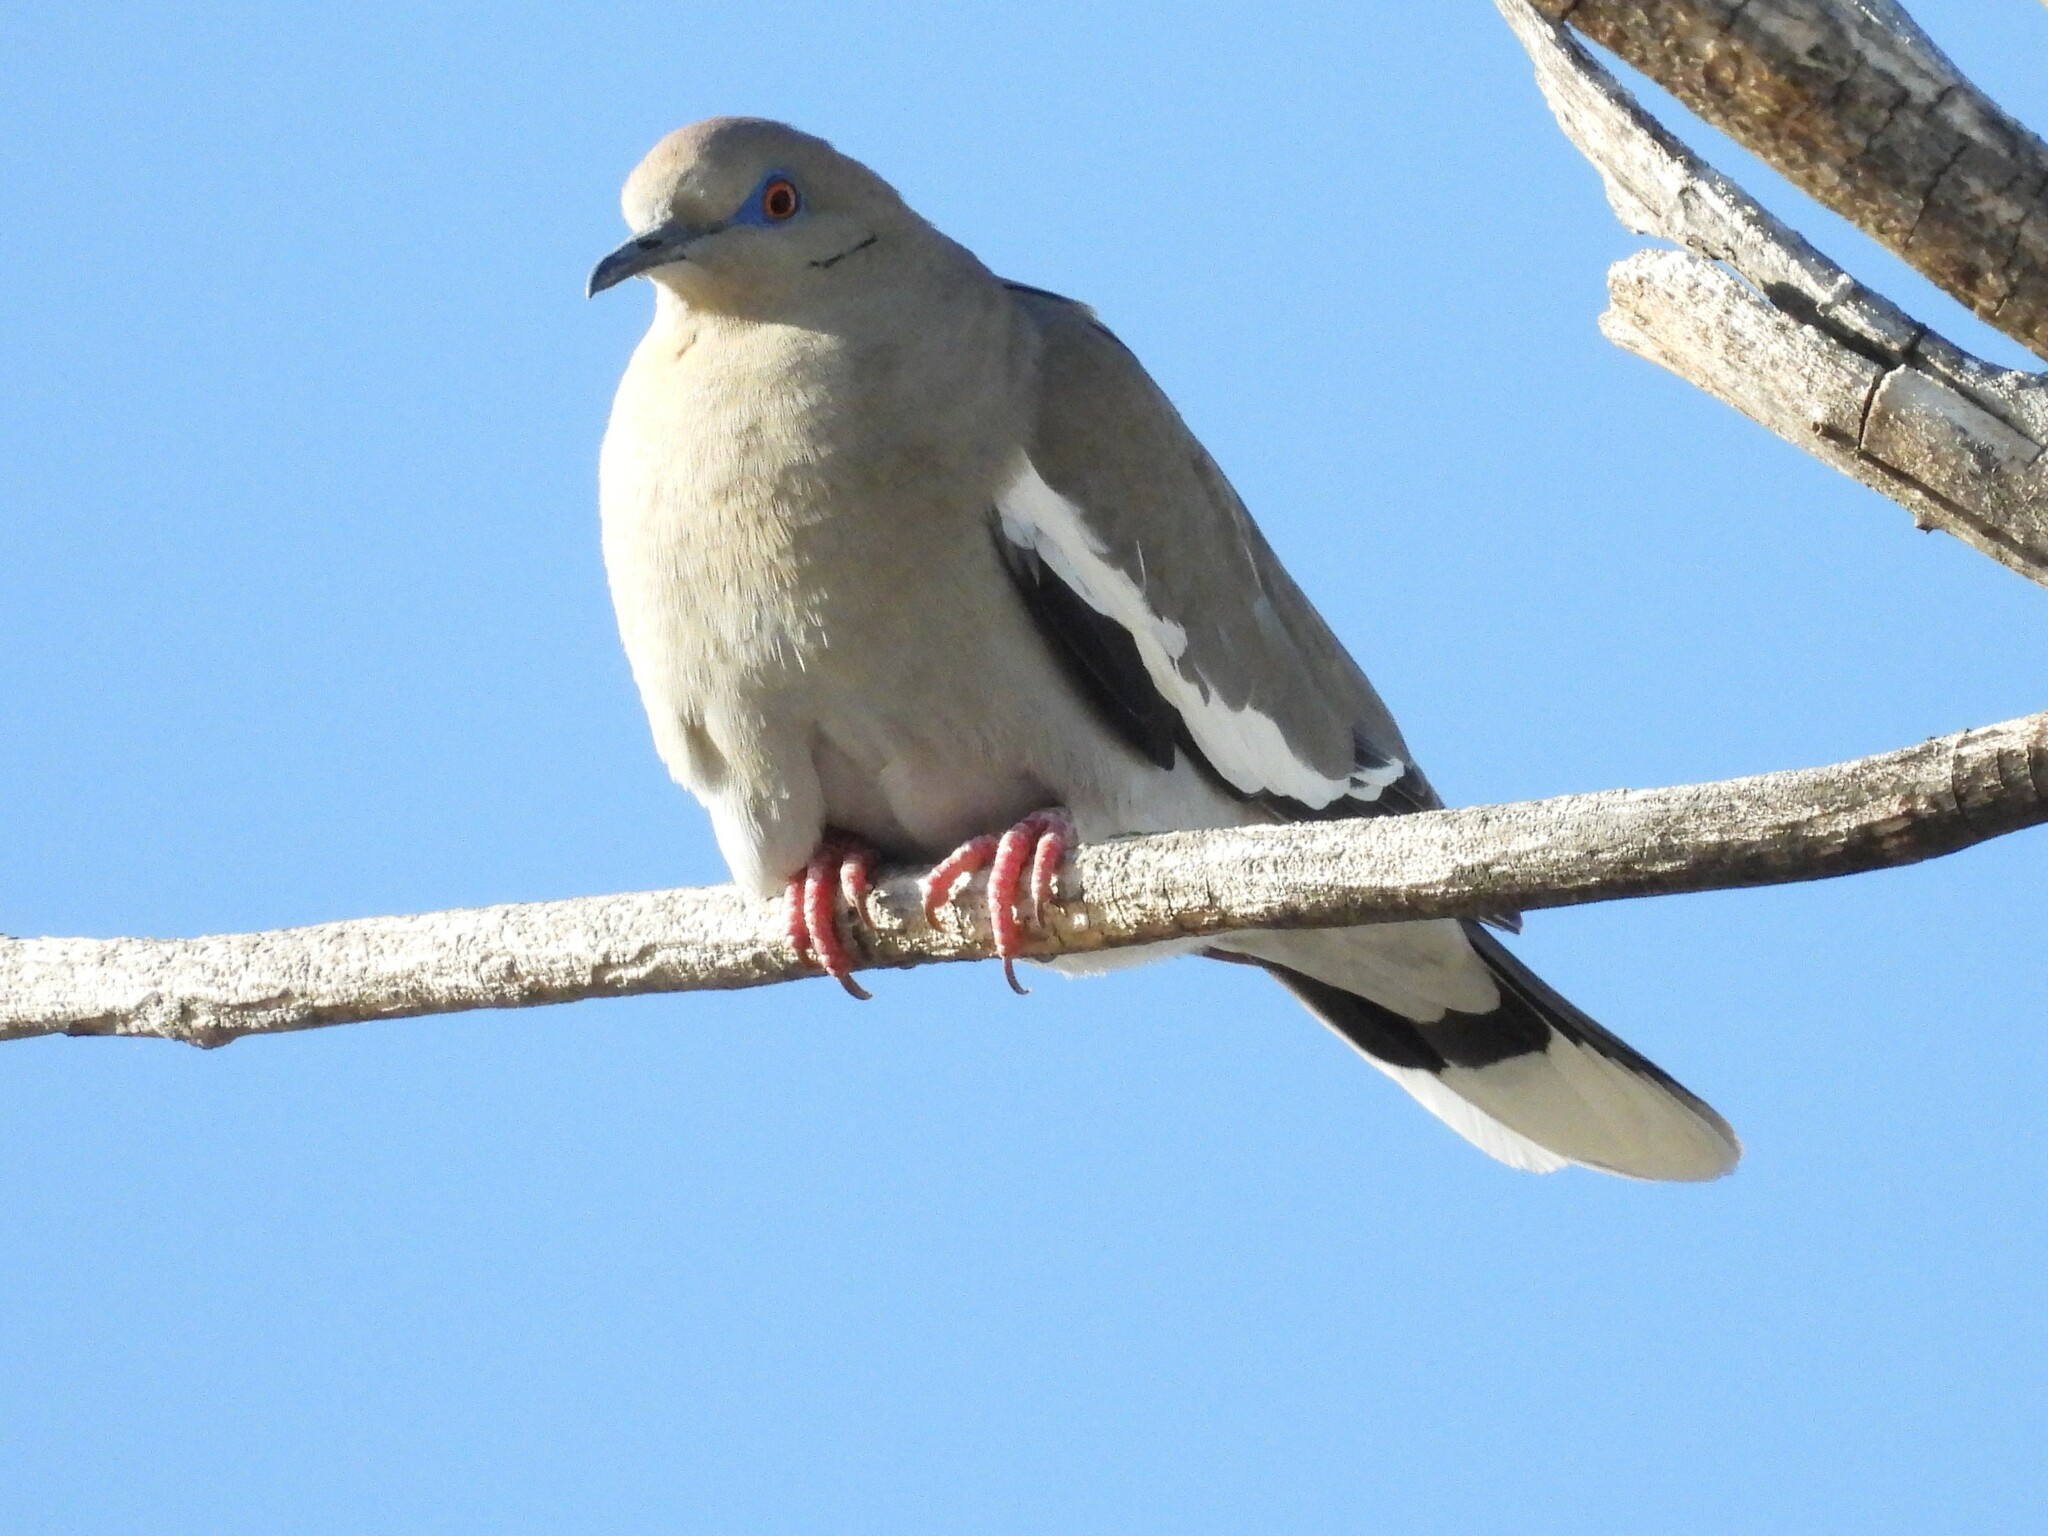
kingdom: Animalia
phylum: Chordata
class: Aves
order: Columbiformes
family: Columbidae
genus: Zenaida
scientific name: Zenaida asiatica
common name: White-winged dove
